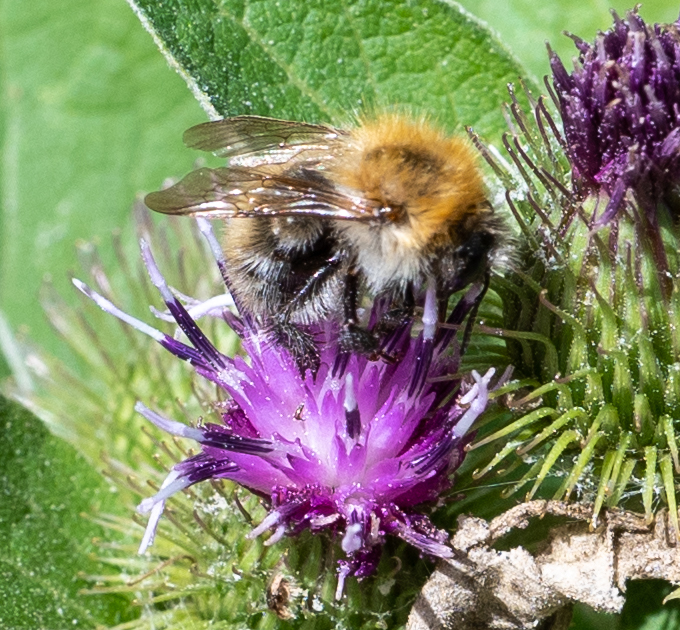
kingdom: Animalia
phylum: Arthropoda
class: Insecta
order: Hymenoptera
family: Apidae
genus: Bombus
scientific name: Bombus pascuorum
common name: Common carder bee
